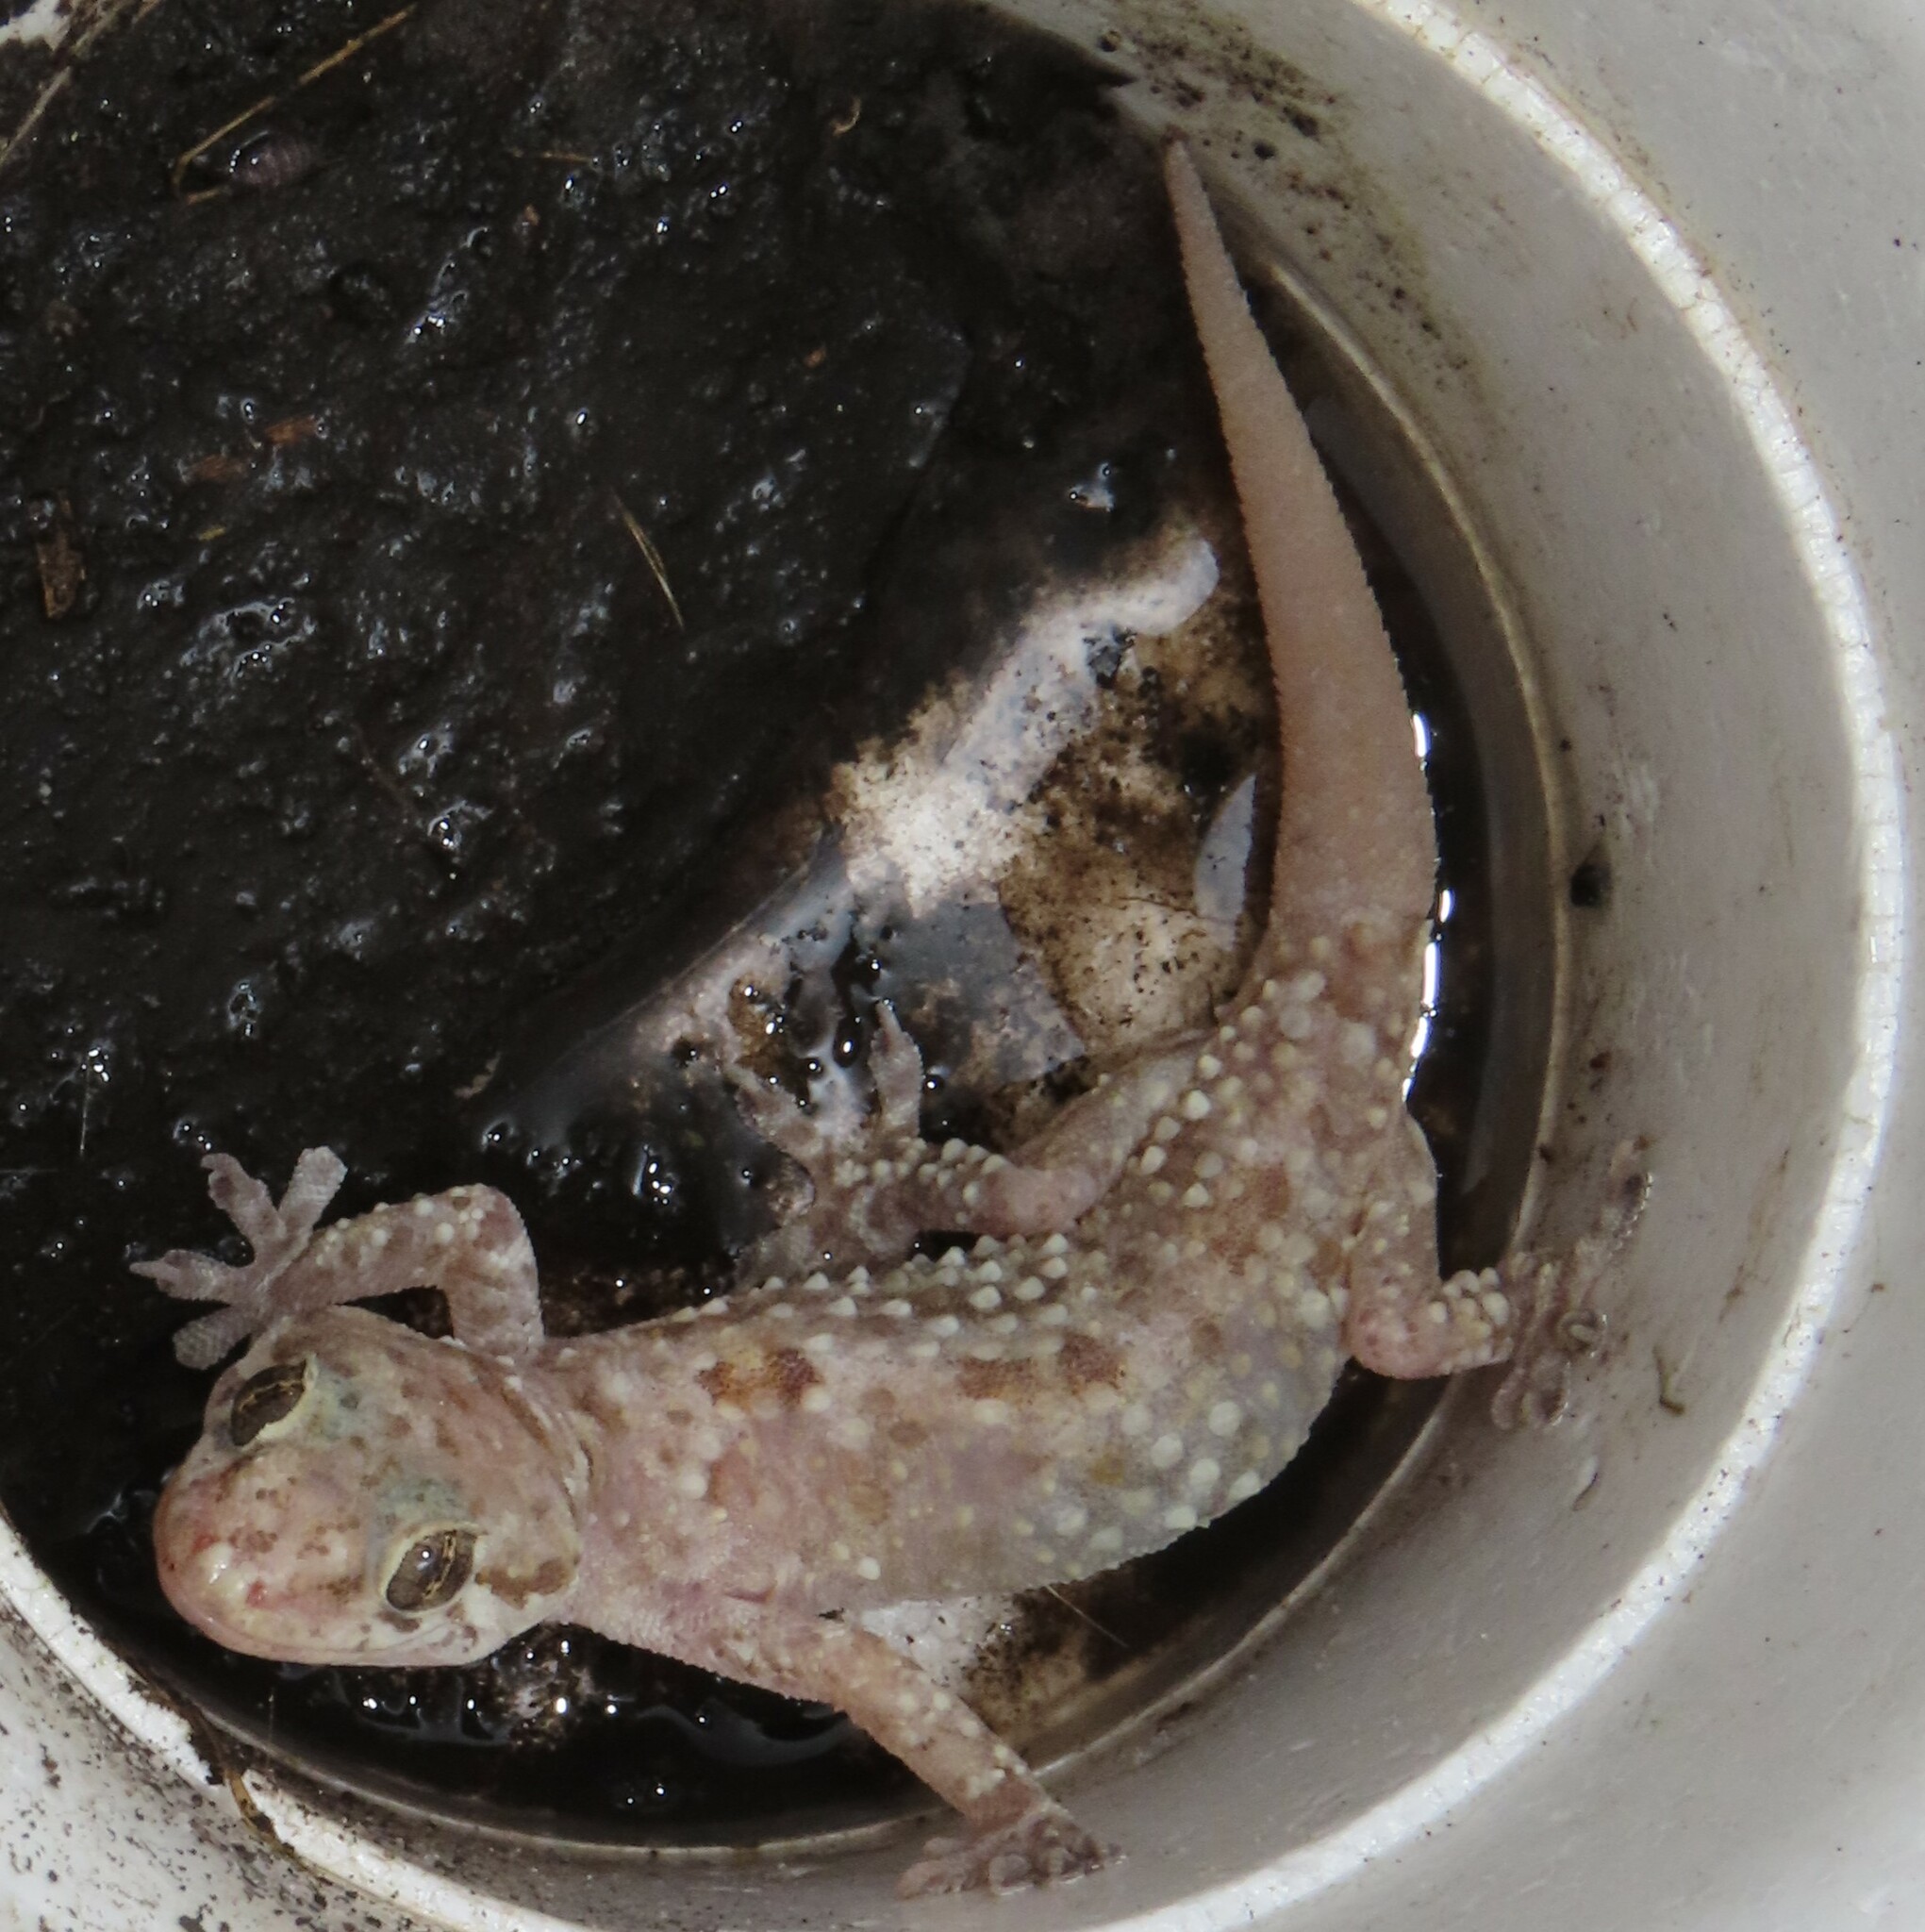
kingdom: Animalia
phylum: Chordata
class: Squamata
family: Gekkonidae
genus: Hemidactylus
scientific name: Hemidactylus turcicus
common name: Turkish gecko
